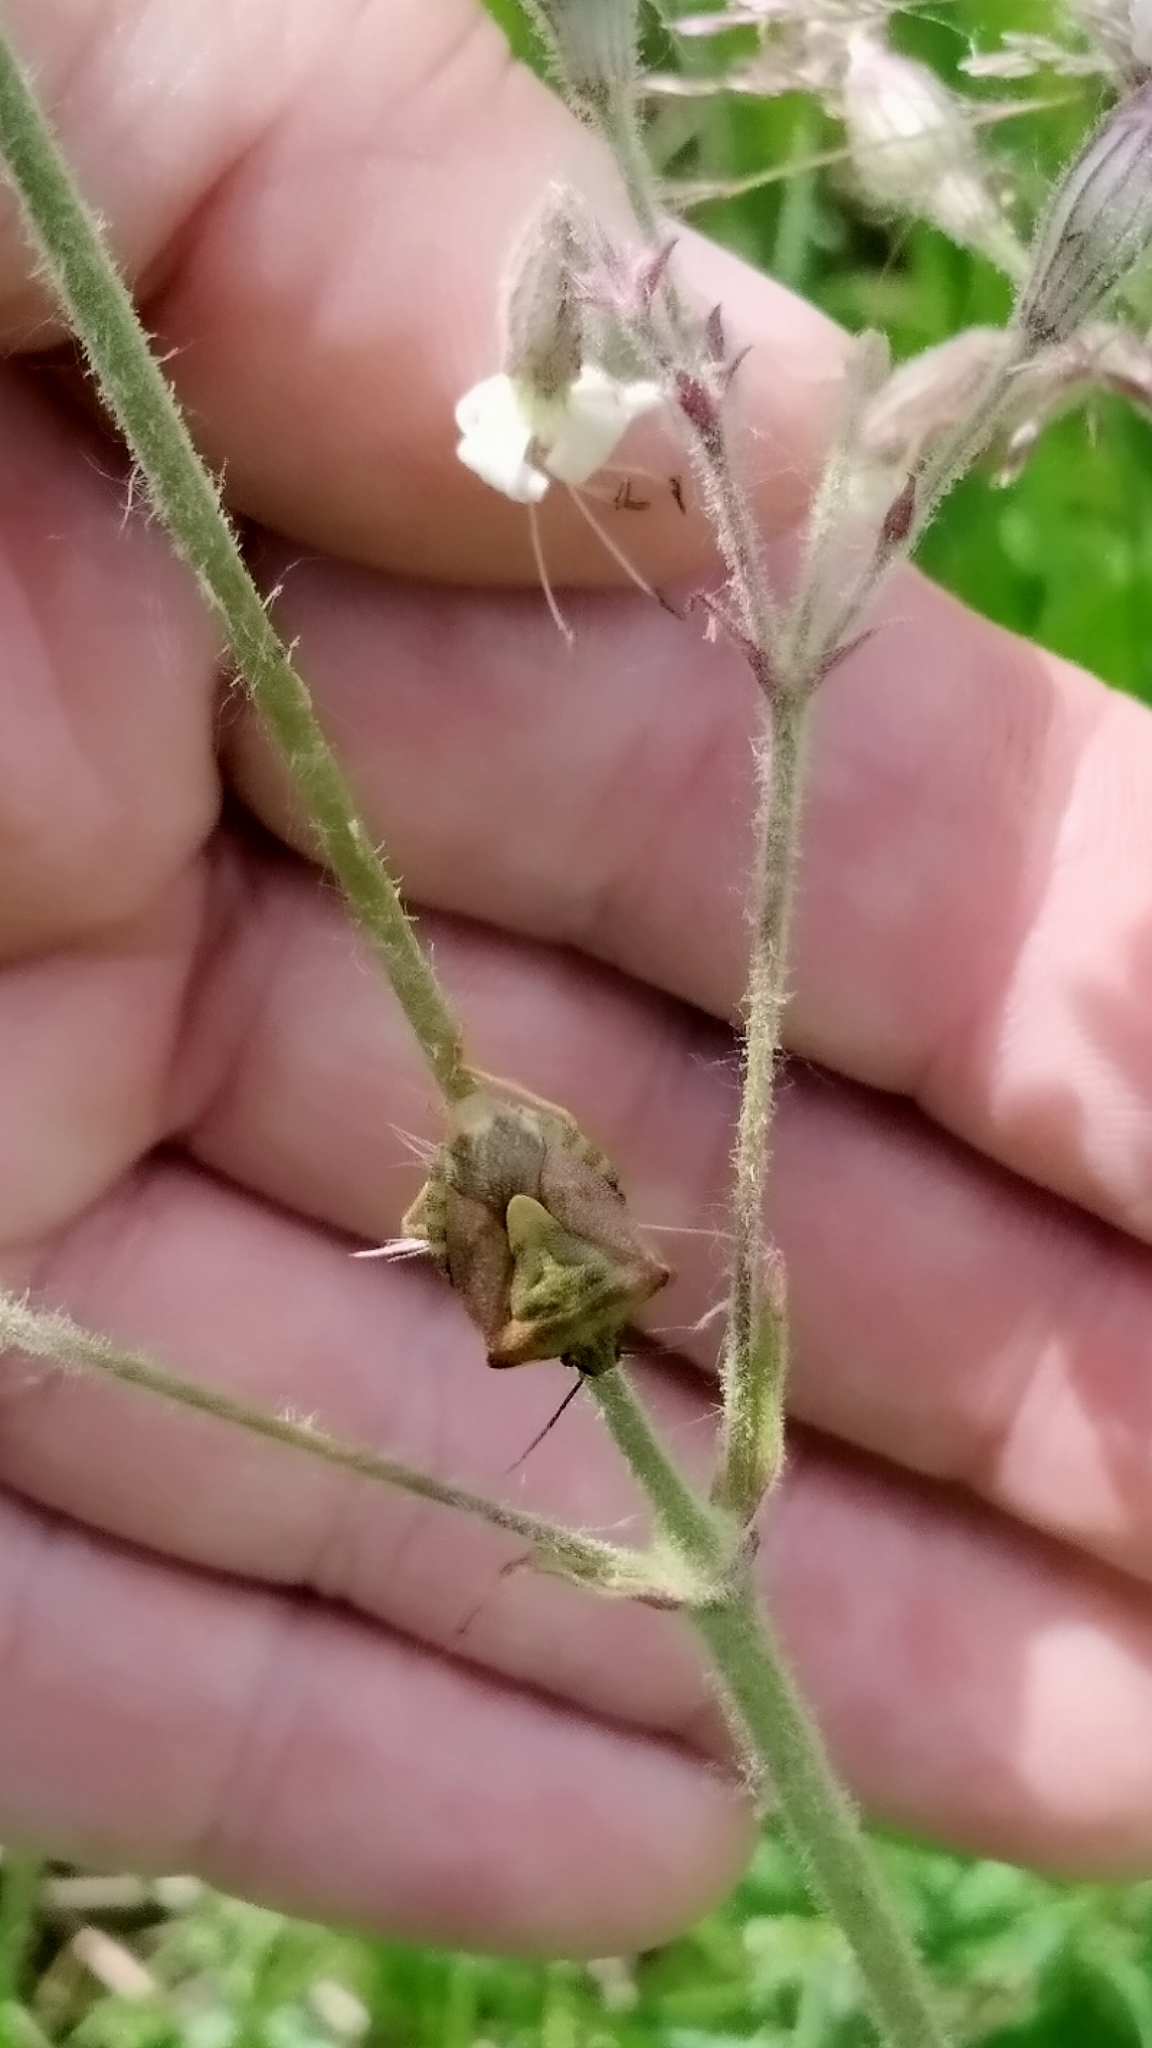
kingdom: Animalia
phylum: Arthropoda
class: Insecta
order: Hemiptera
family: Pentatomidae
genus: Carpocoris
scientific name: Carpocoris purpureipennis
